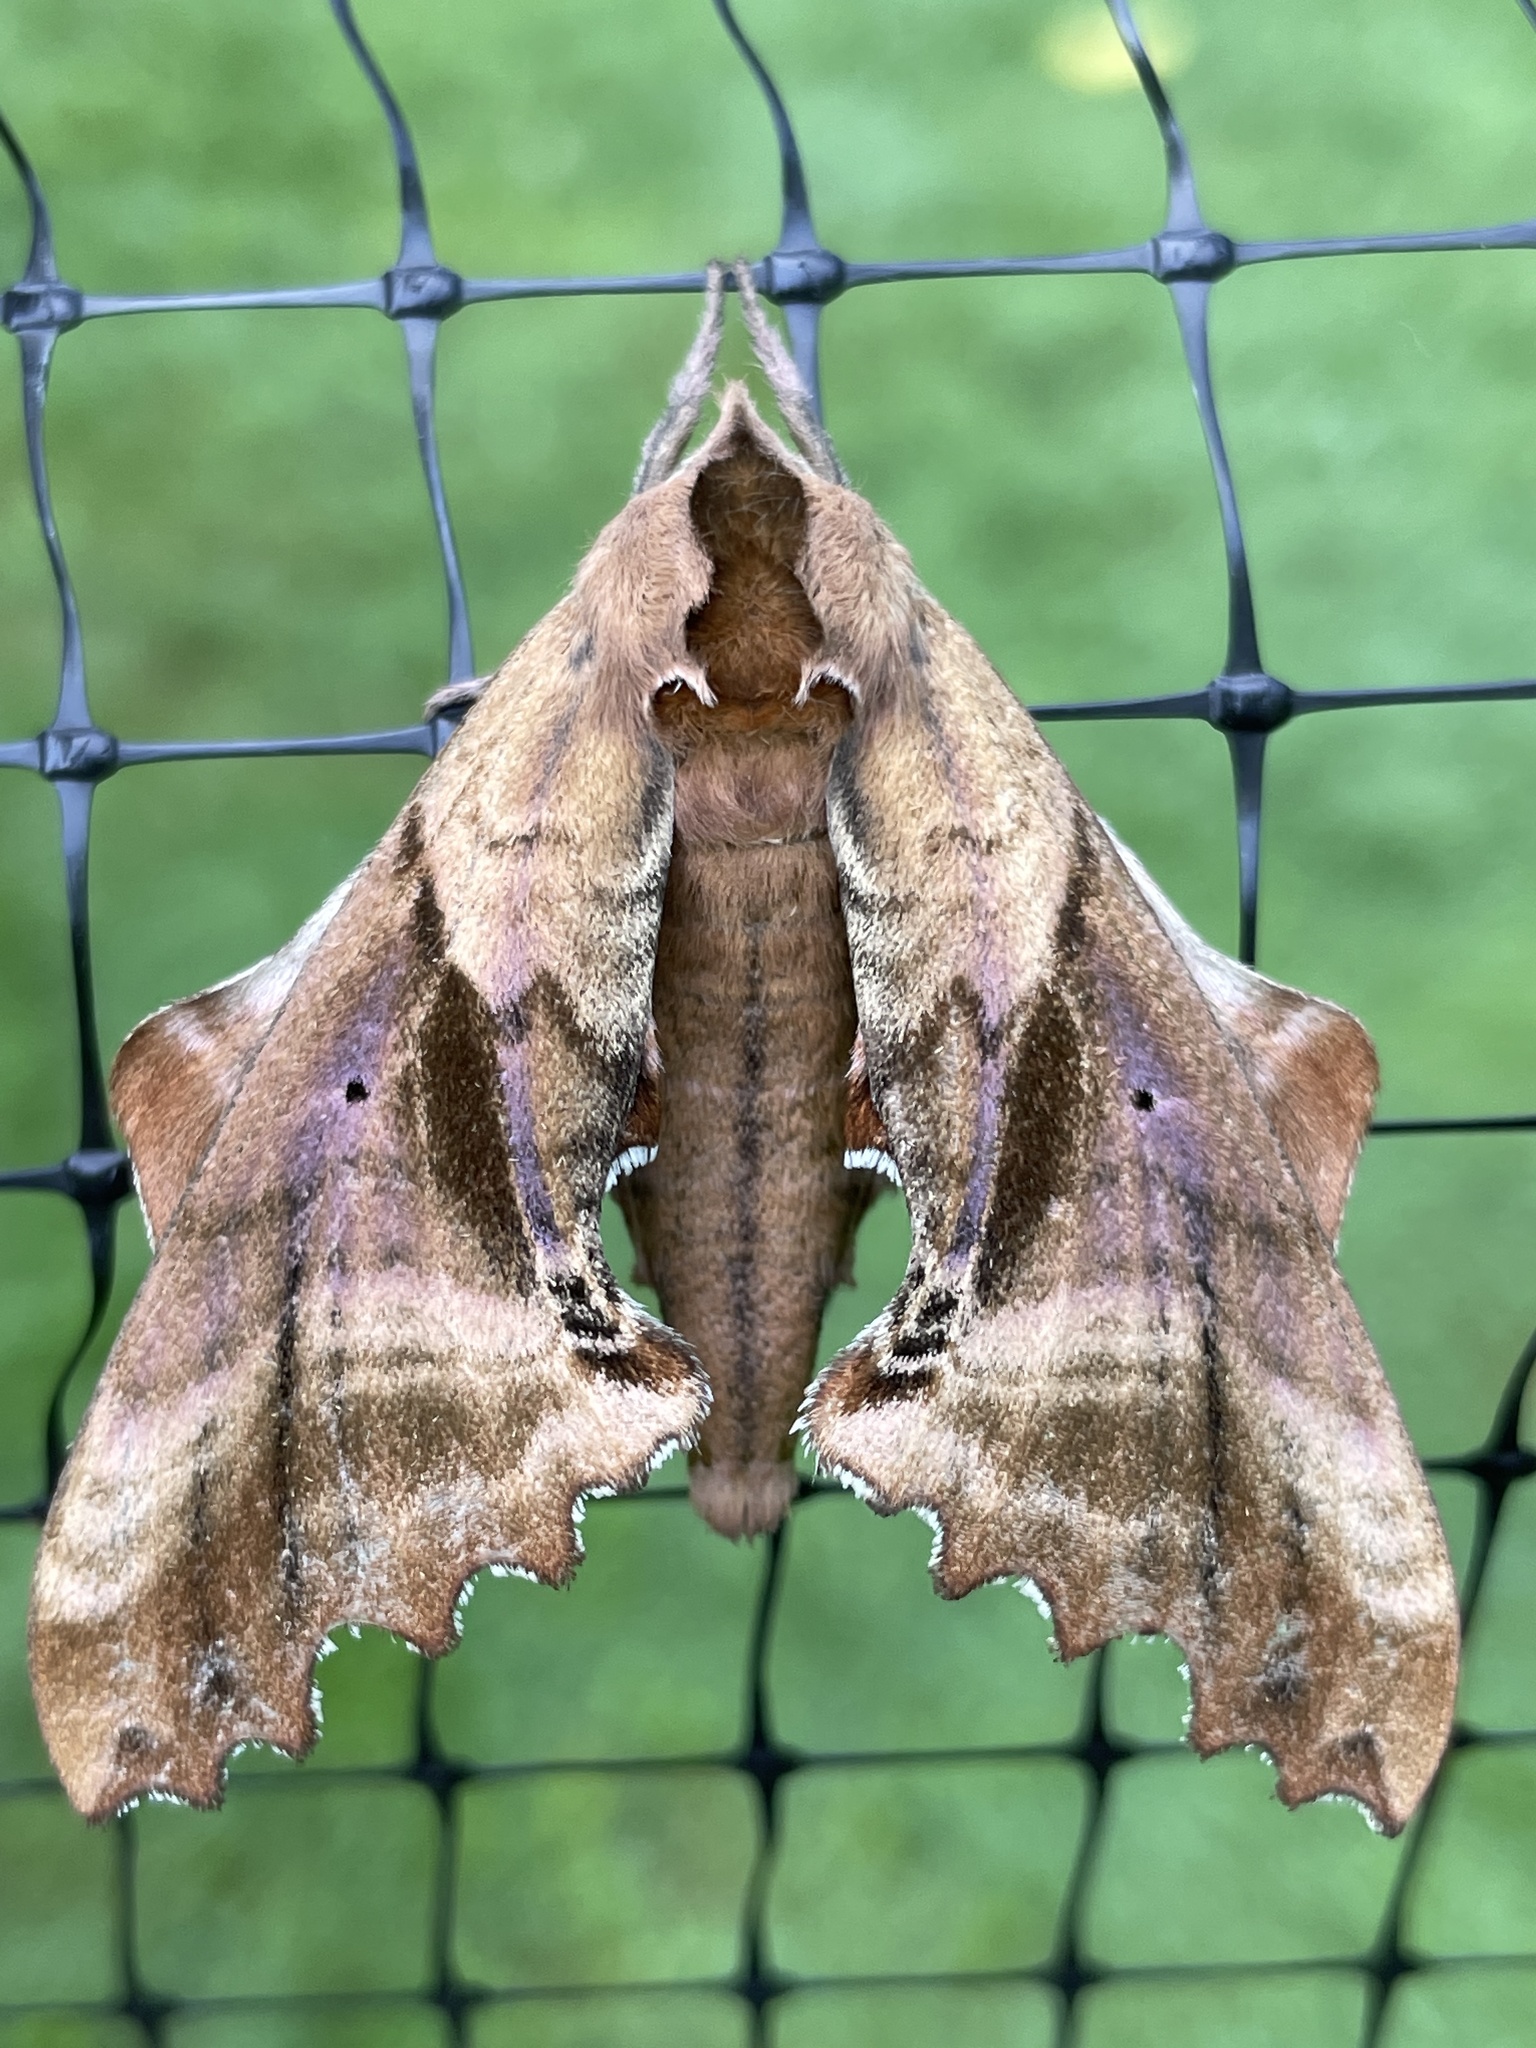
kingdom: Animalia
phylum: Arthropoda
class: Insecta
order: Lepidoptera
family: Sphingidae
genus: Paonias
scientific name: Paonias excaecata
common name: Blind-eyed sphinx
